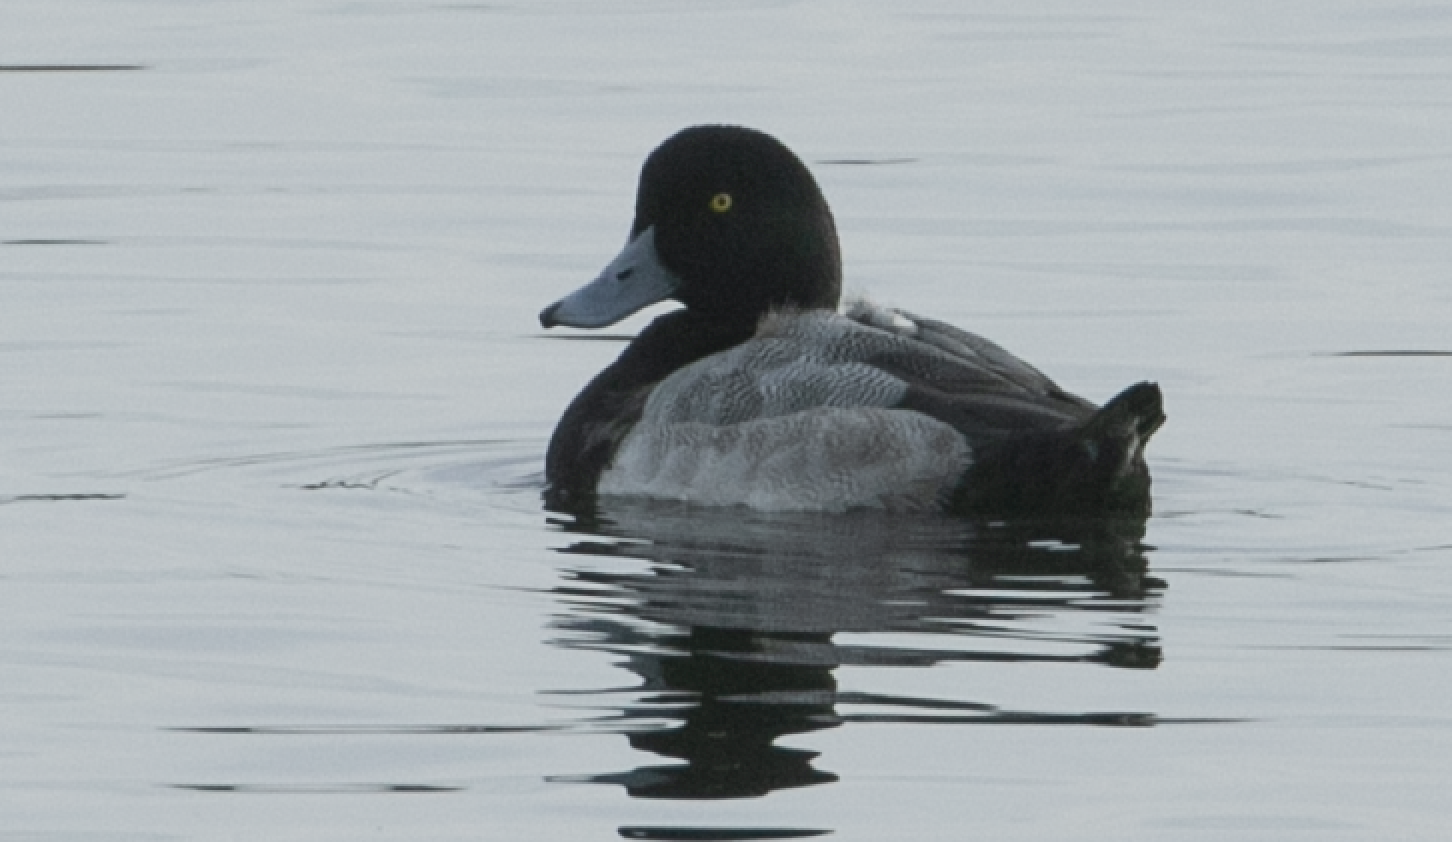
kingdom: Animalia
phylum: Chordata
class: Aves
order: Anseriformes
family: Anatidae
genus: Aythya
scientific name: Aythya marila
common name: Greater scaup
